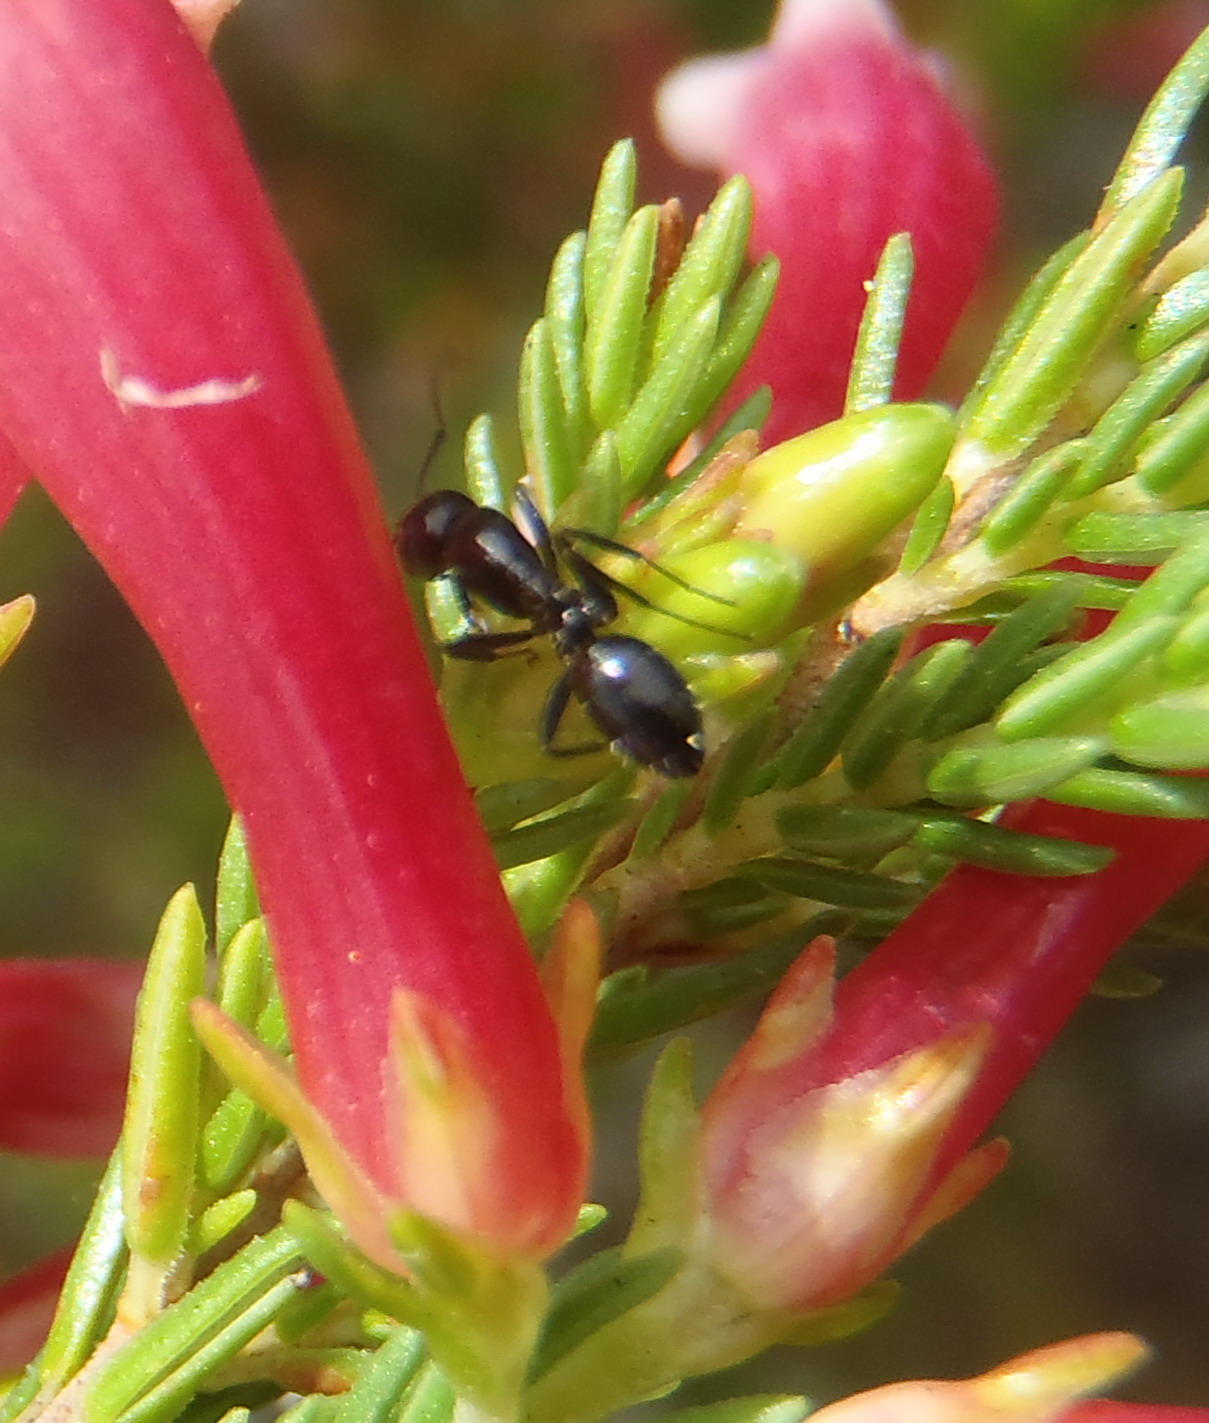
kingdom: Animalia
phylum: Arthropoda
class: Insecta
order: Hymenoptera
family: Formicidae
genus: Camponotus
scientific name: Camponotus knysnae
